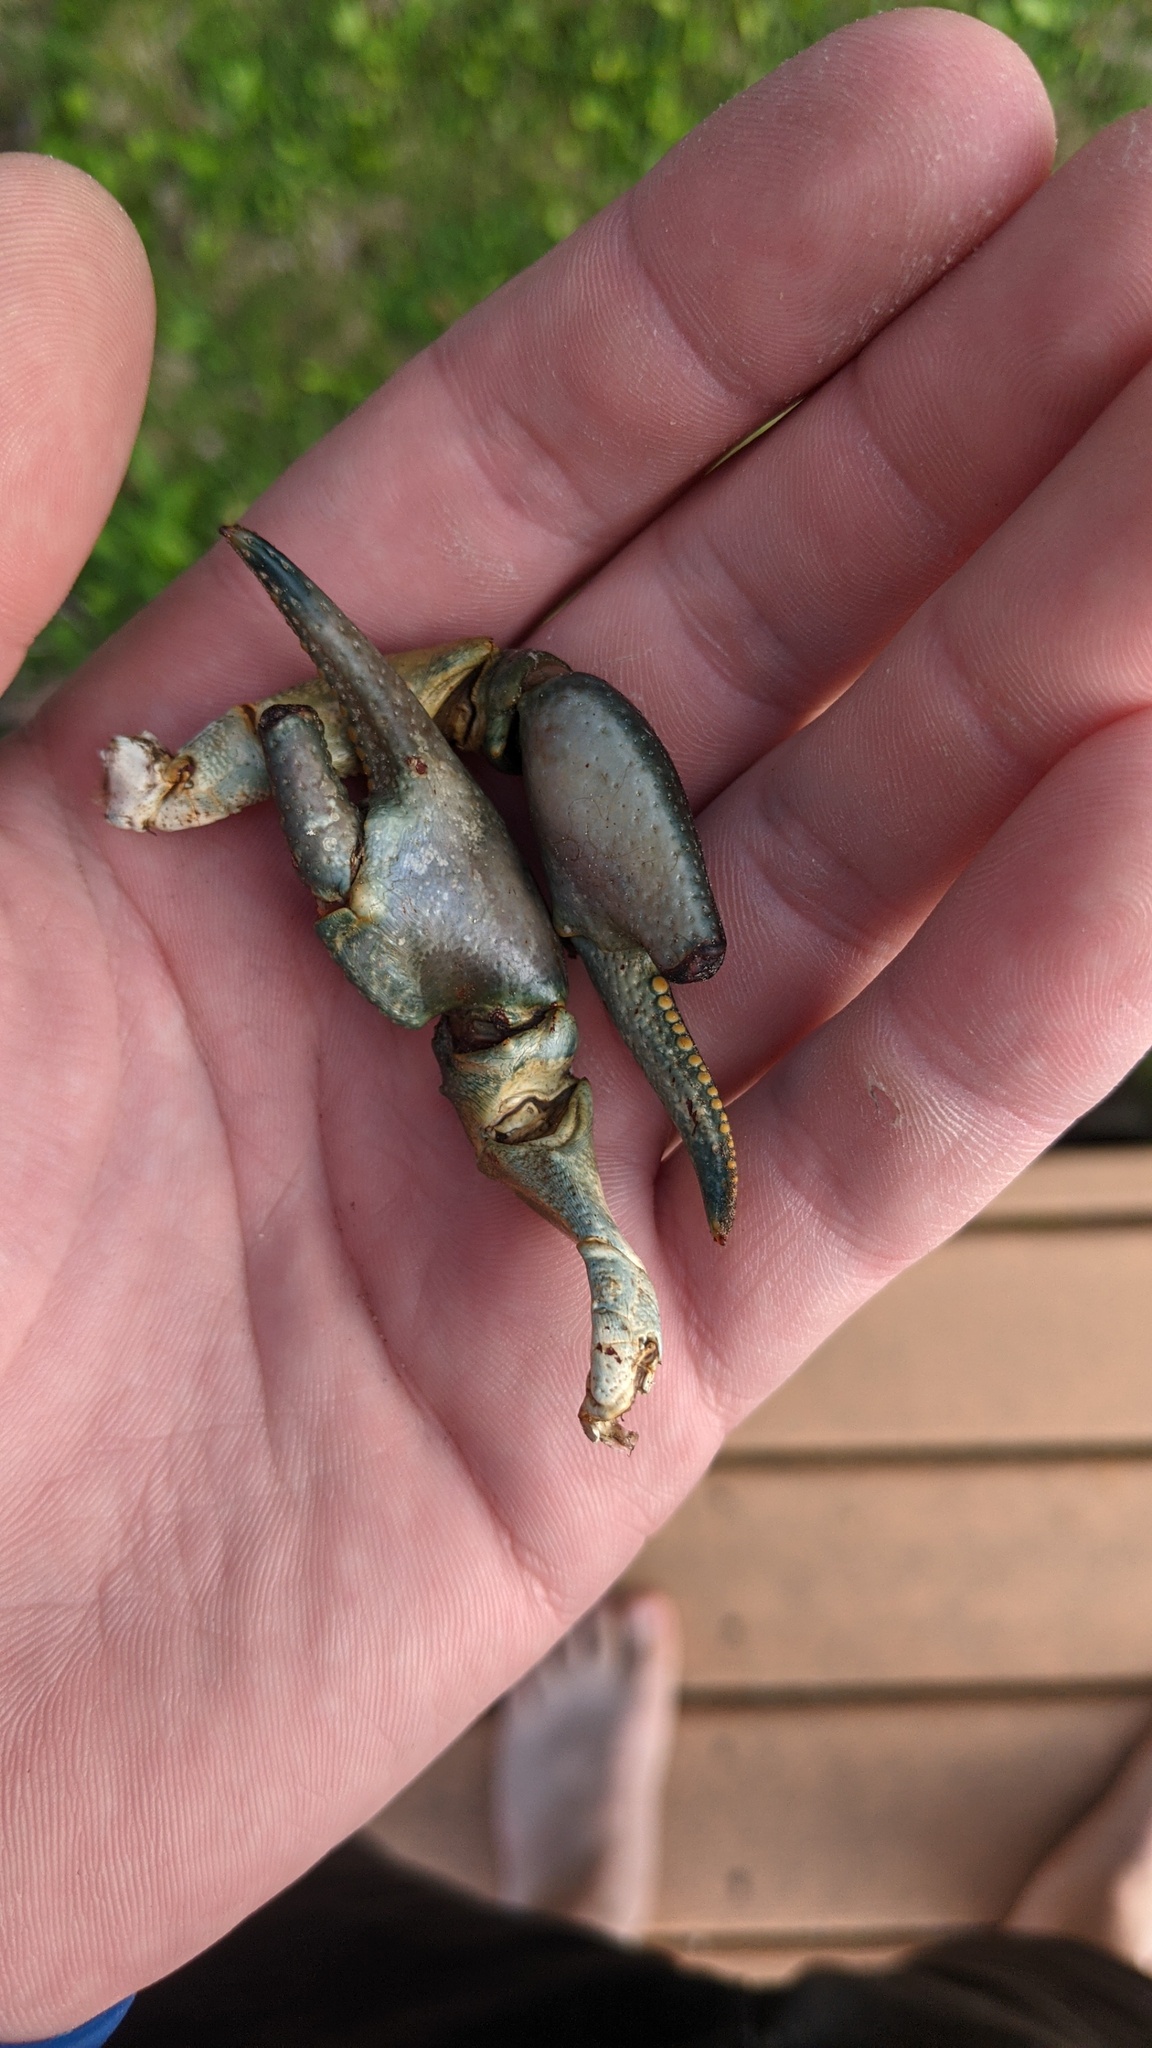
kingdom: Animalia
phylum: Arthropoda
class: Malacostraca
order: Decapoda
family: Cambaridae
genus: Faxonius
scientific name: Faxonius rusticus
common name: Rusty crayfish
